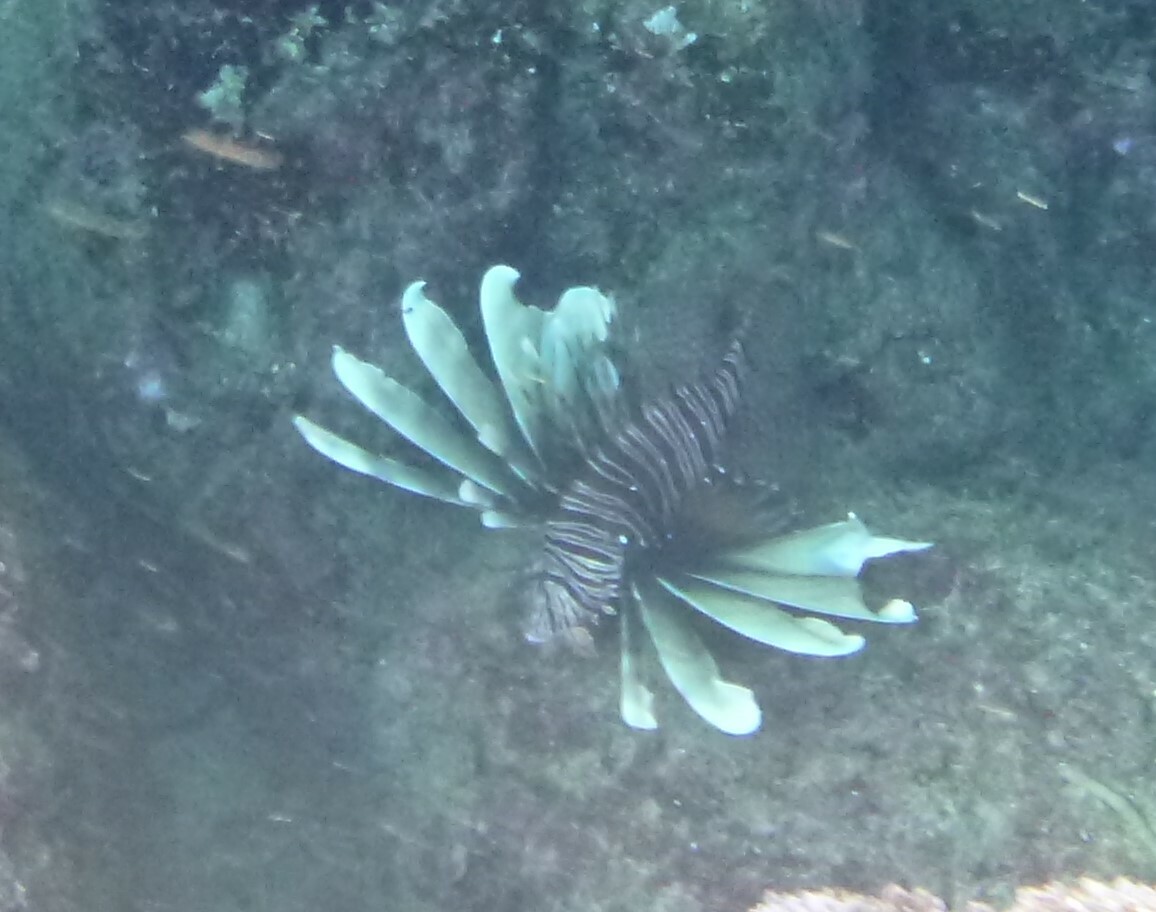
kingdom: Animalia
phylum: Chordata
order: Scorpaeniformes
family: Scorpaenidae
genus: Pterois
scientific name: Pterois miles
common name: Devil firefish
